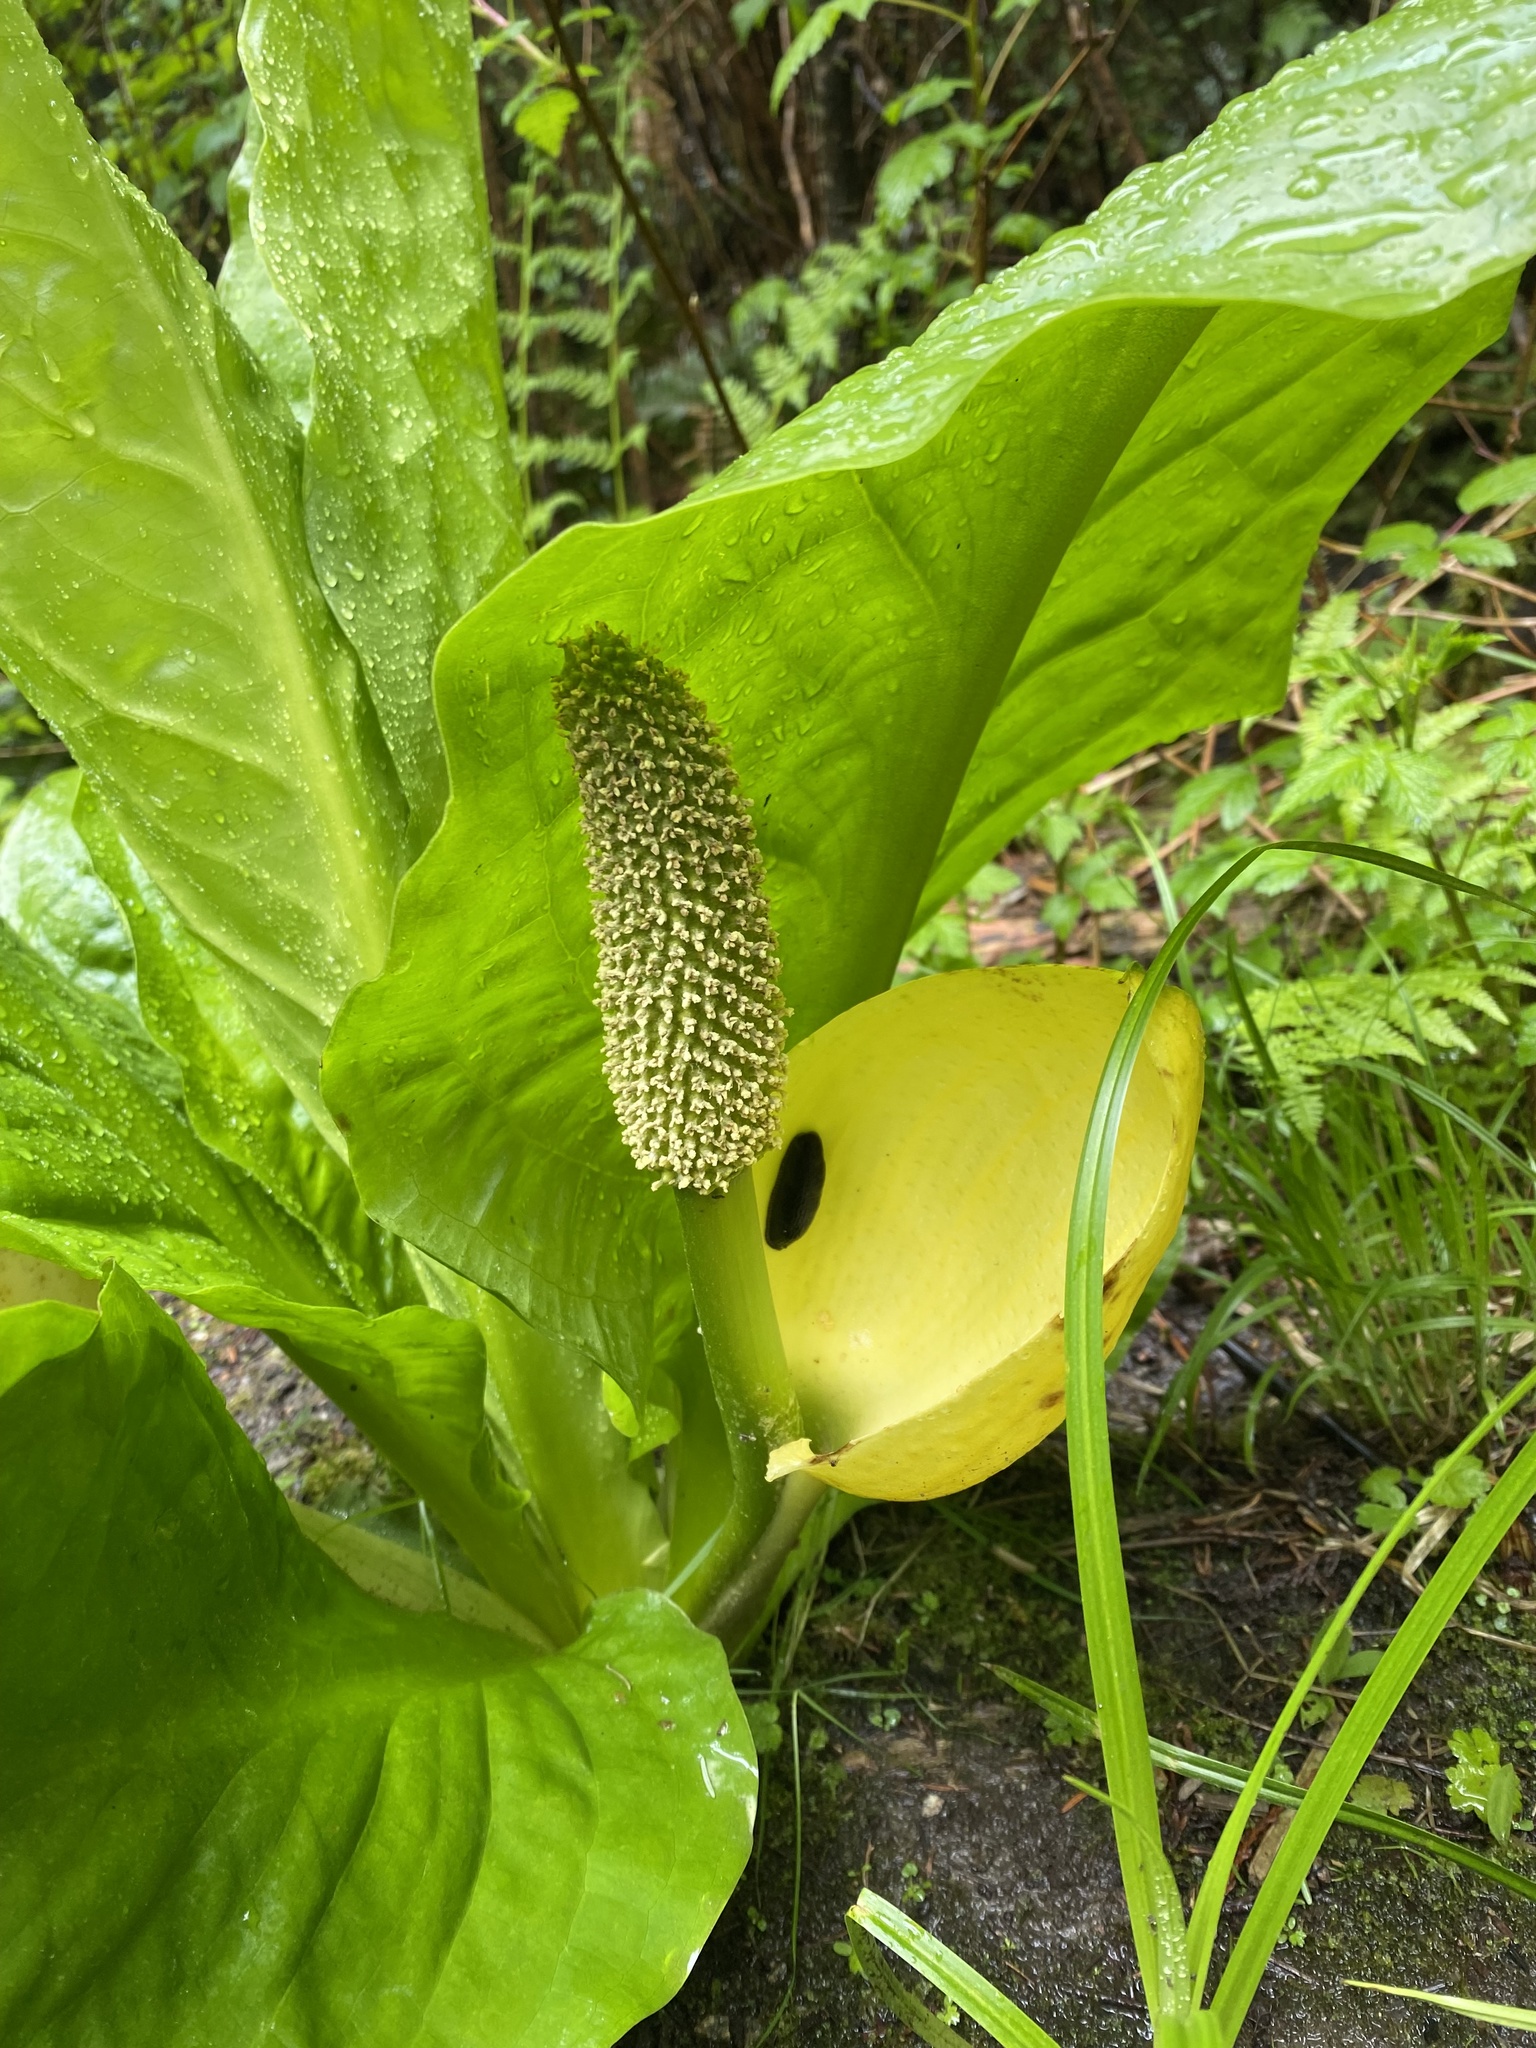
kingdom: Plantae
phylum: Tracheophyta
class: Liliopsida
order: Alismatales
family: Araceae
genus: Lysichiton
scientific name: Lysichiton americanus
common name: American skunk cabbage
